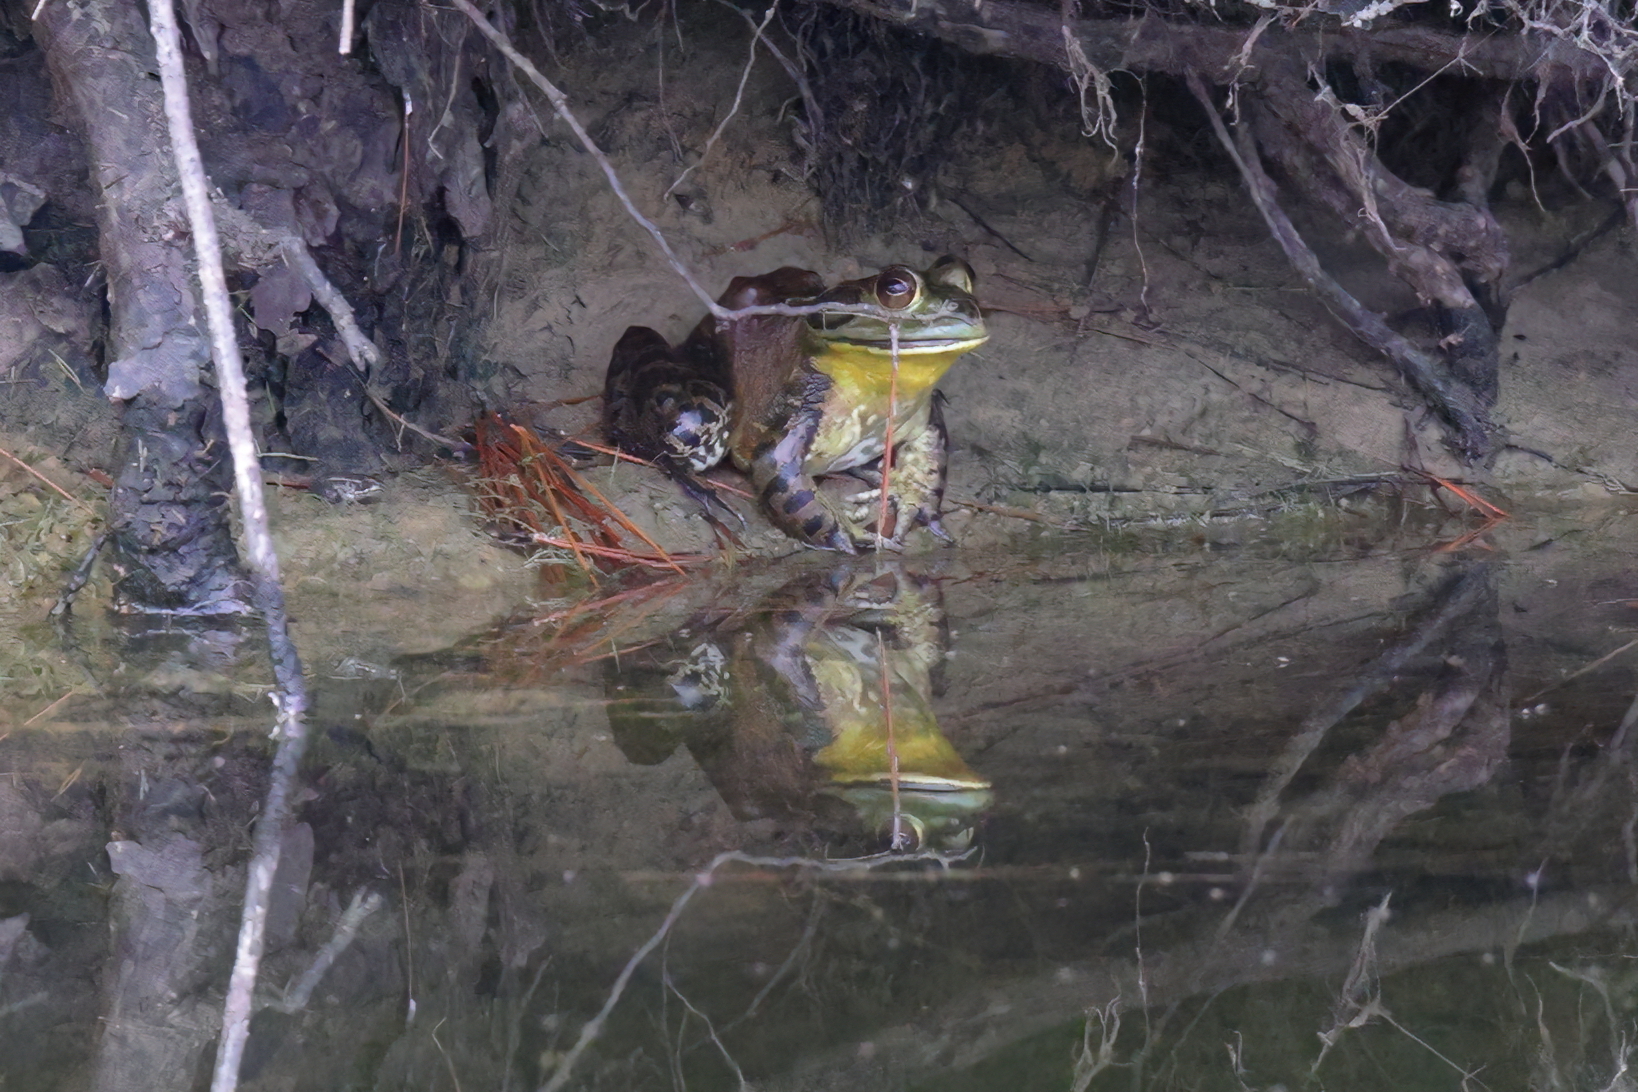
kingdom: Animalia
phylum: Chordata
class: Amphibia
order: Anura
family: Ranidae
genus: Lithobates
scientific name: Lithobates catesbeianus
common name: American bullfrog
